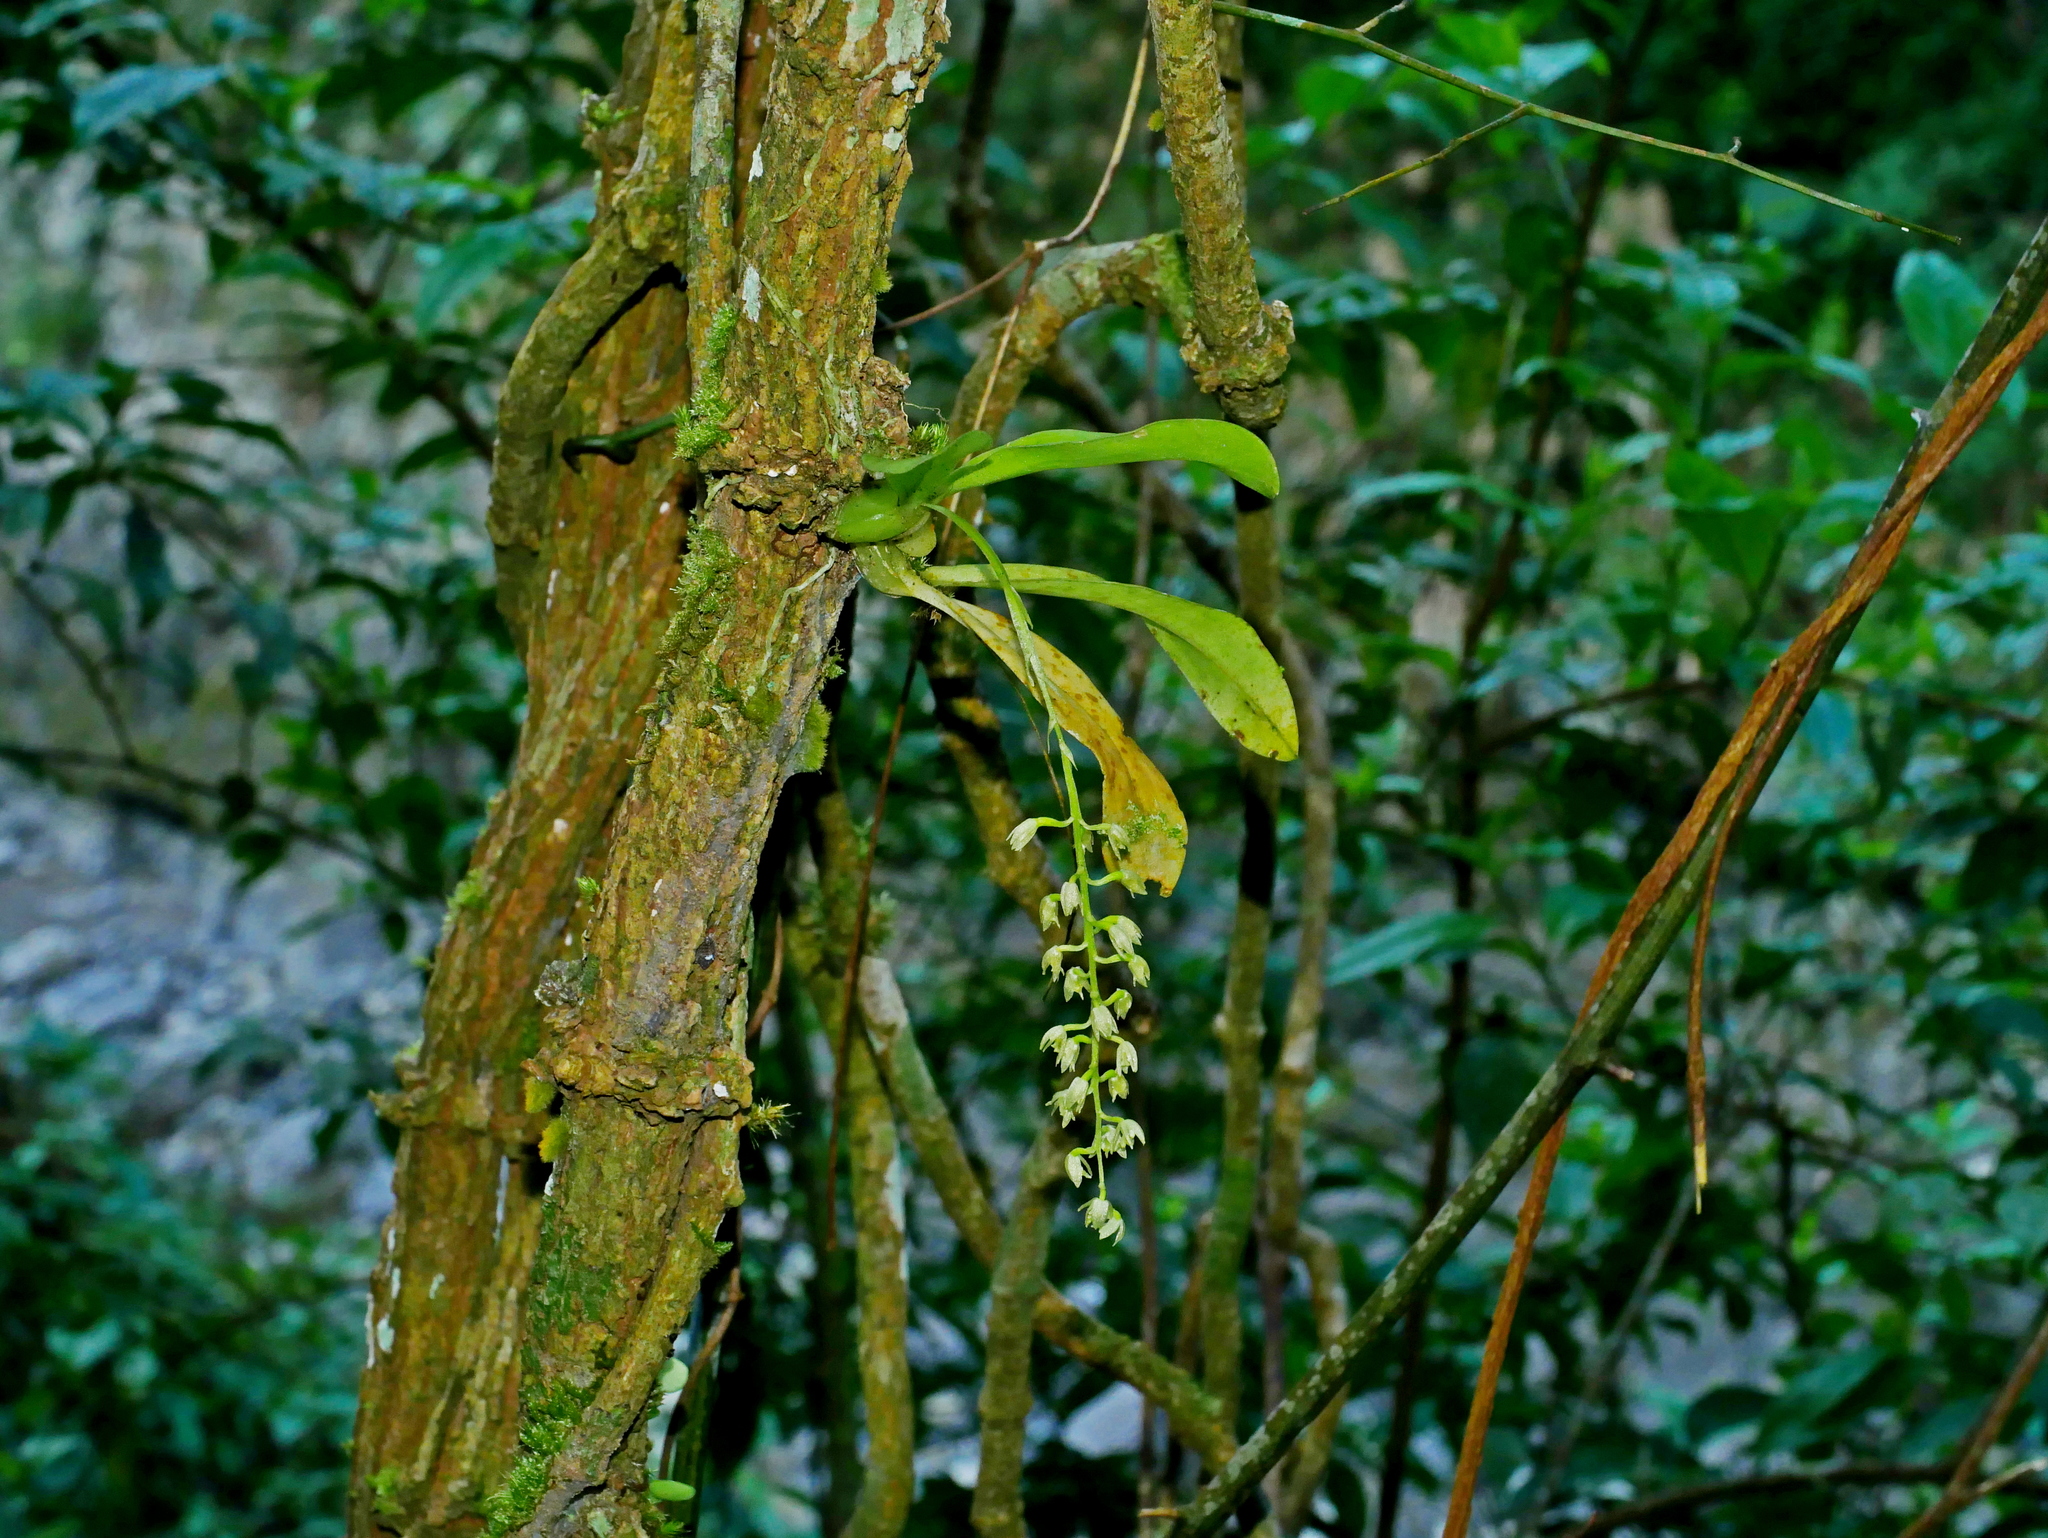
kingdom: Plantae
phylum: Tracheophyta
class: Liliopsida
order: Asparagales
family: Orchidaceae
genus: Liparis
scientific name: Liparis elliptica
